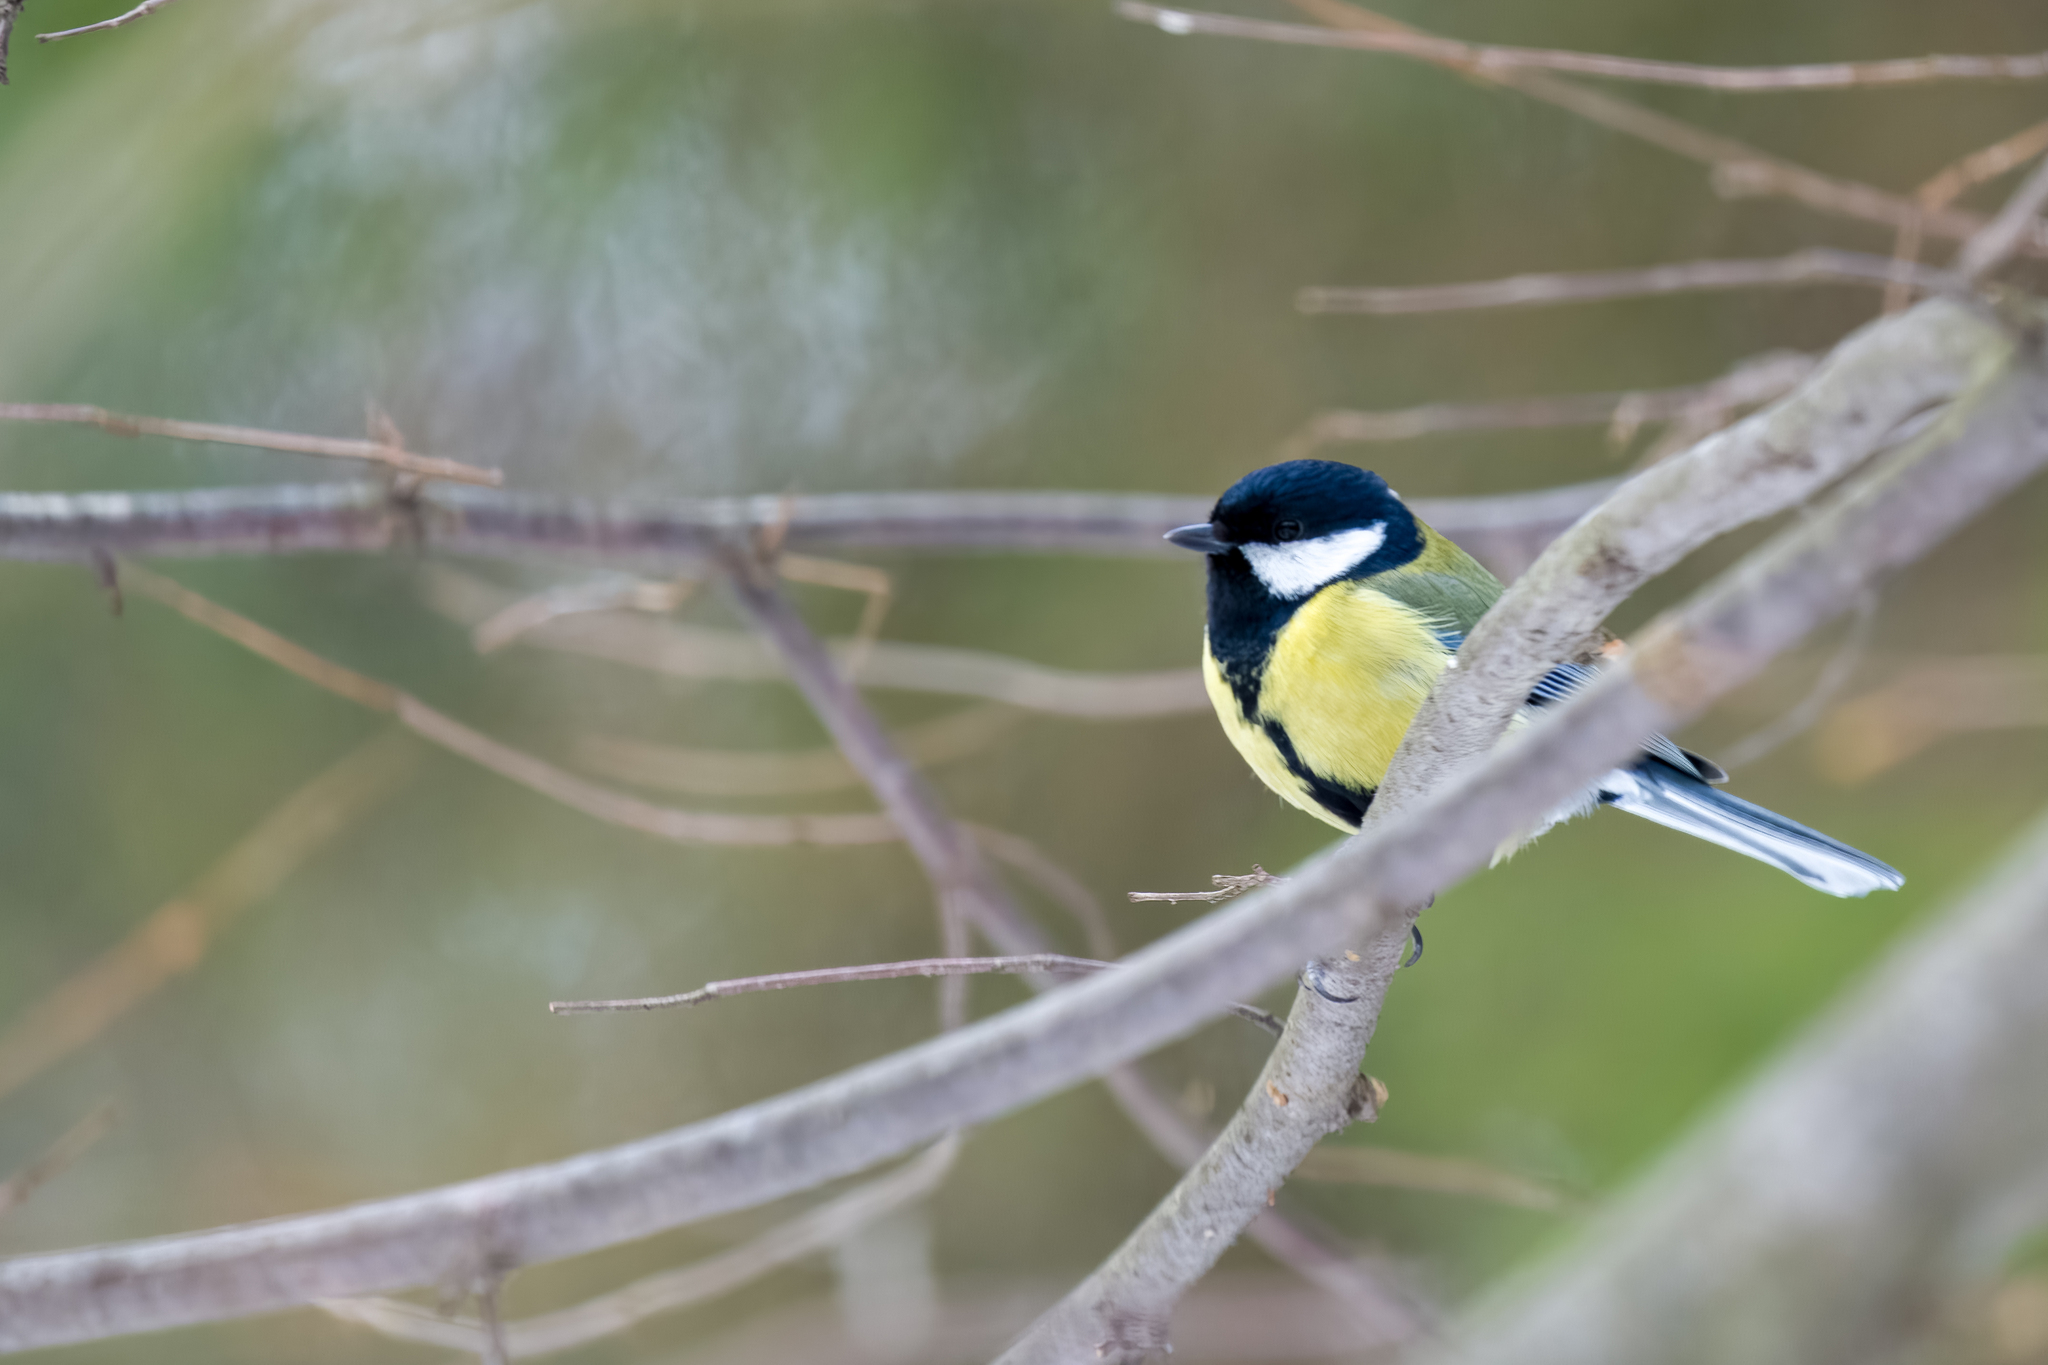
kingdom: Animalia
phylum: Chordata
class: Aves
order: Passeriformes
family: Paridae
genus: Parus
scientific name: Parus major
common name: Great tit
